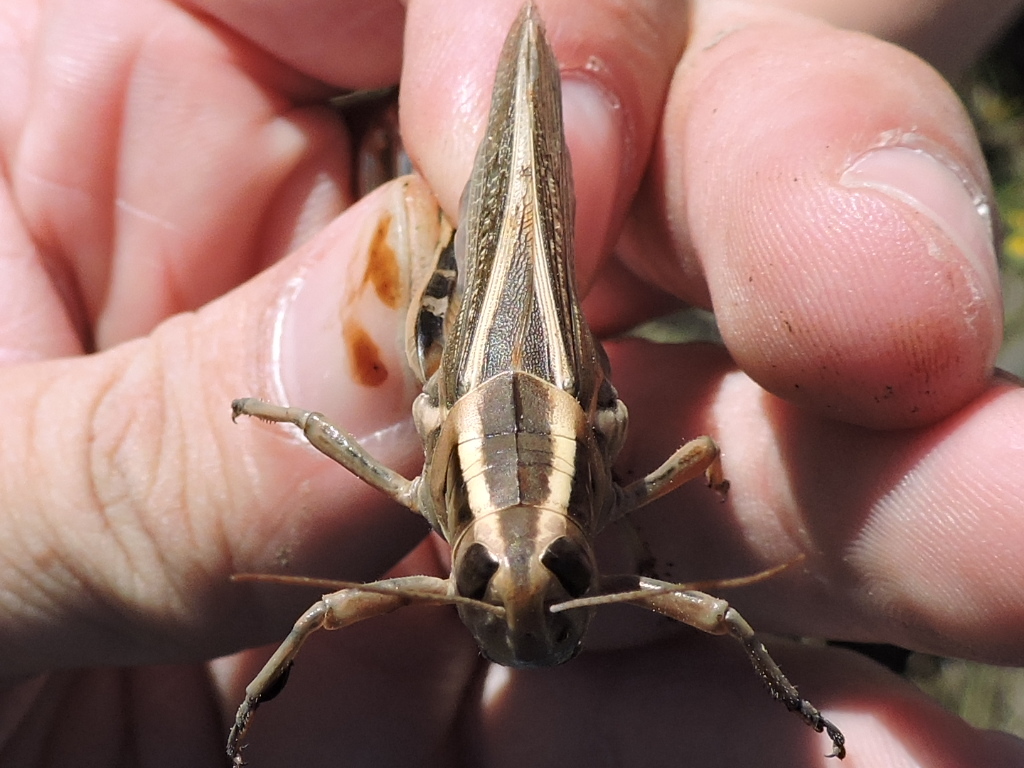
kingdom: Animalia
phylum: Arthropoda
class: Insecta
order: Orthoptera
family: Acrididae
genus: Melanoplus
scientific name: Melanoplus bivittatus
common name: Two-striped grasshopper
